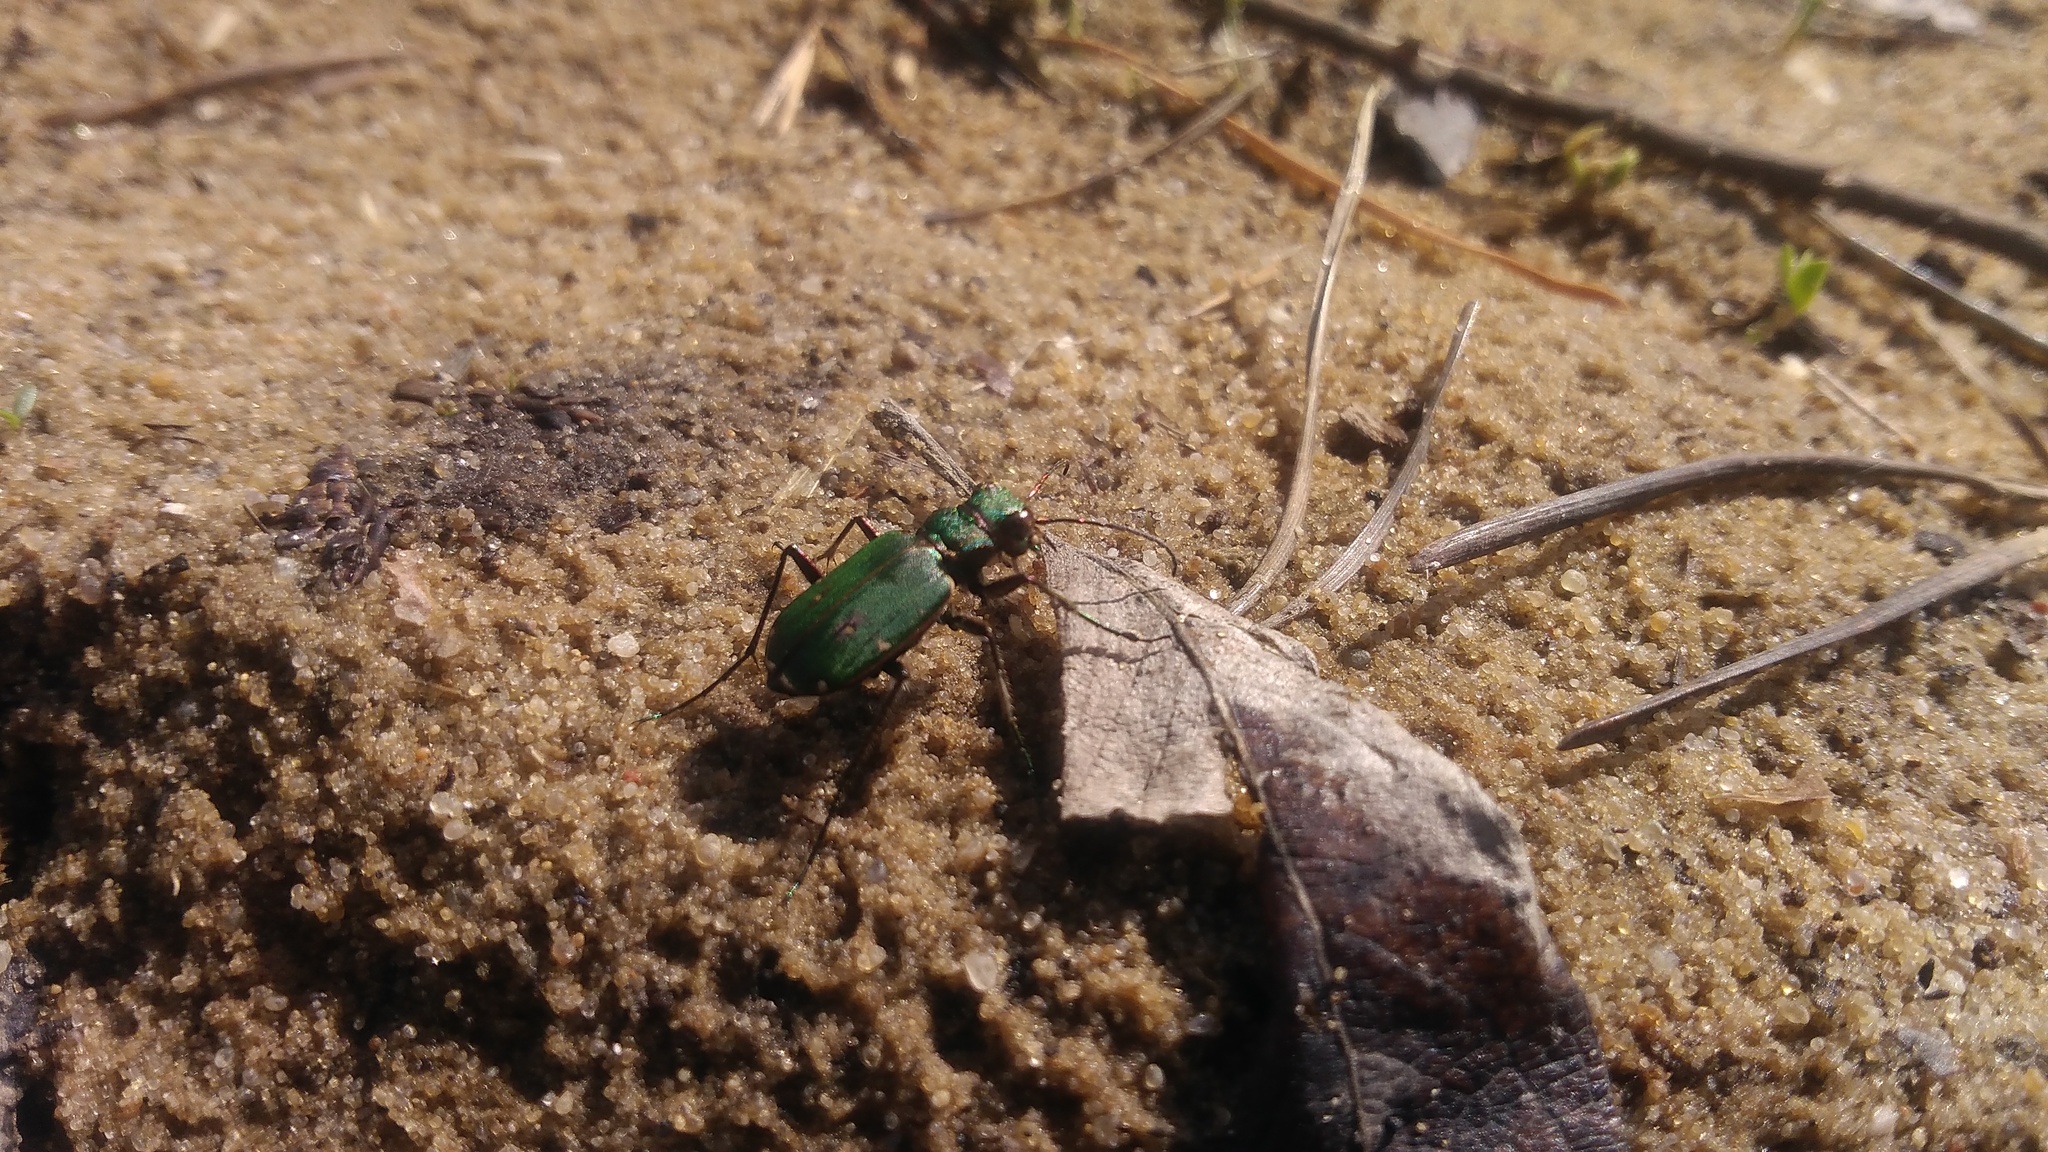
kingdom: Animalia
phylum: Arthropoda
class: Insecta
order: Coleoptera
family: Carabidae
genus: Cicindela
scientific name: Cicindela campestris
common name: Common tiger beetle
